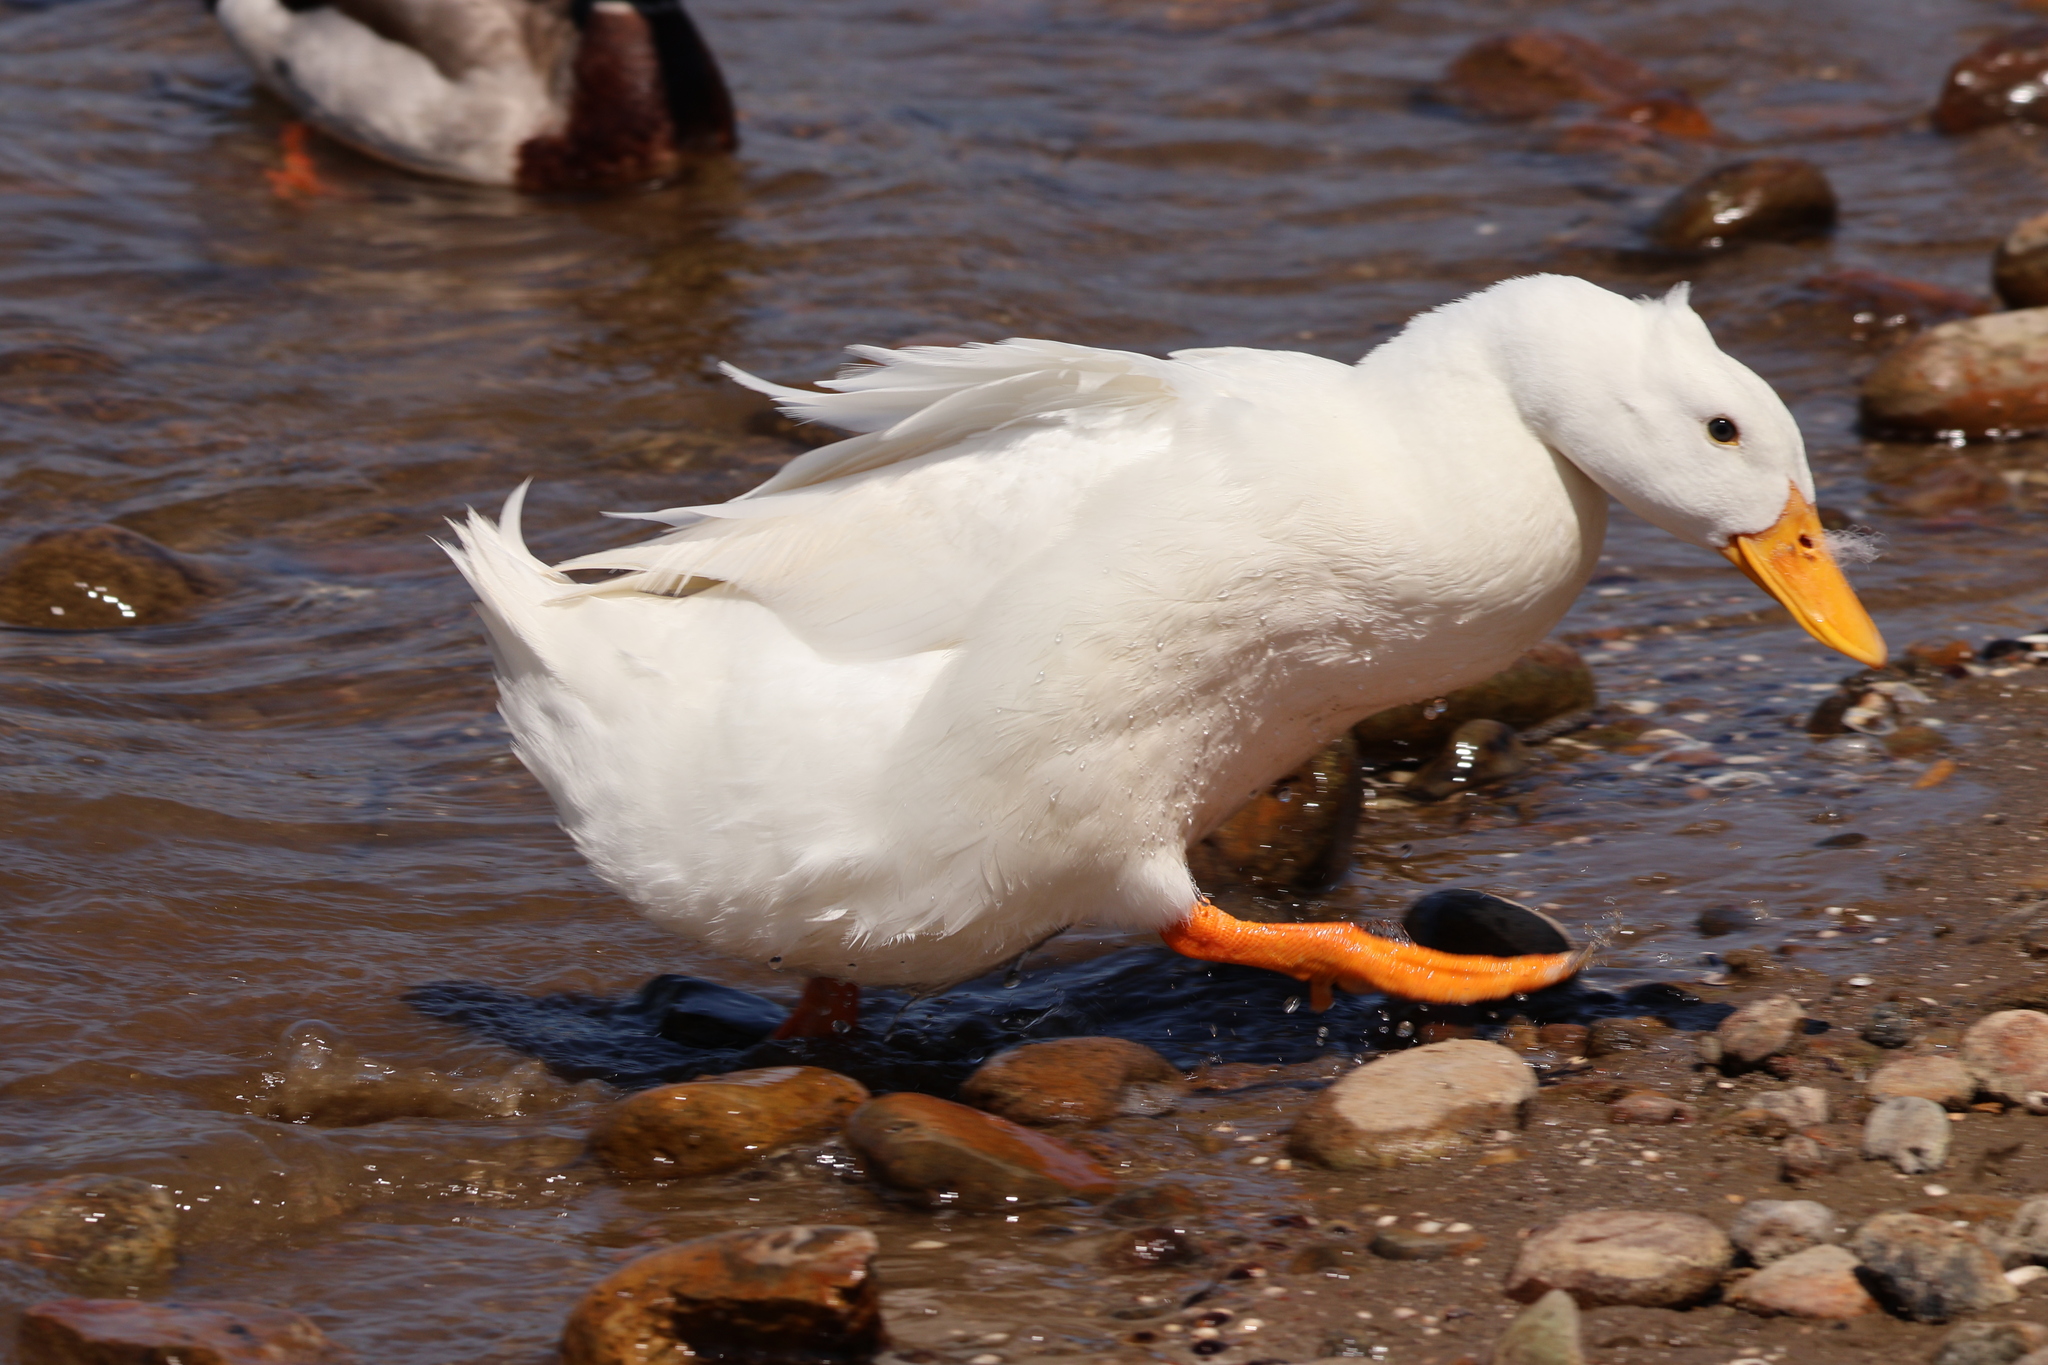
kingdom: Animalia
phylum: Chordata
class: Aves
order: Anseriformes
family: Anatidae
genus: Anas
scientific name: Anas platyrhynchos
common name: Mallard
